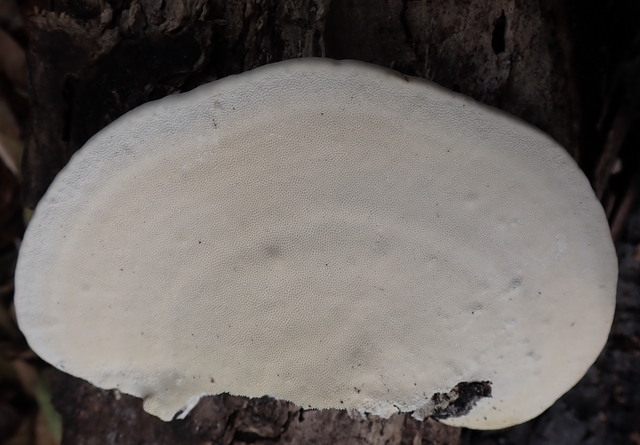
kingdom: Fungi
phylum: Basidiomycota
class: Agaricomycetes
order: Polyporales
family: Polyporaceae
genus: Trametes
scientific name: Trametes lactinea
